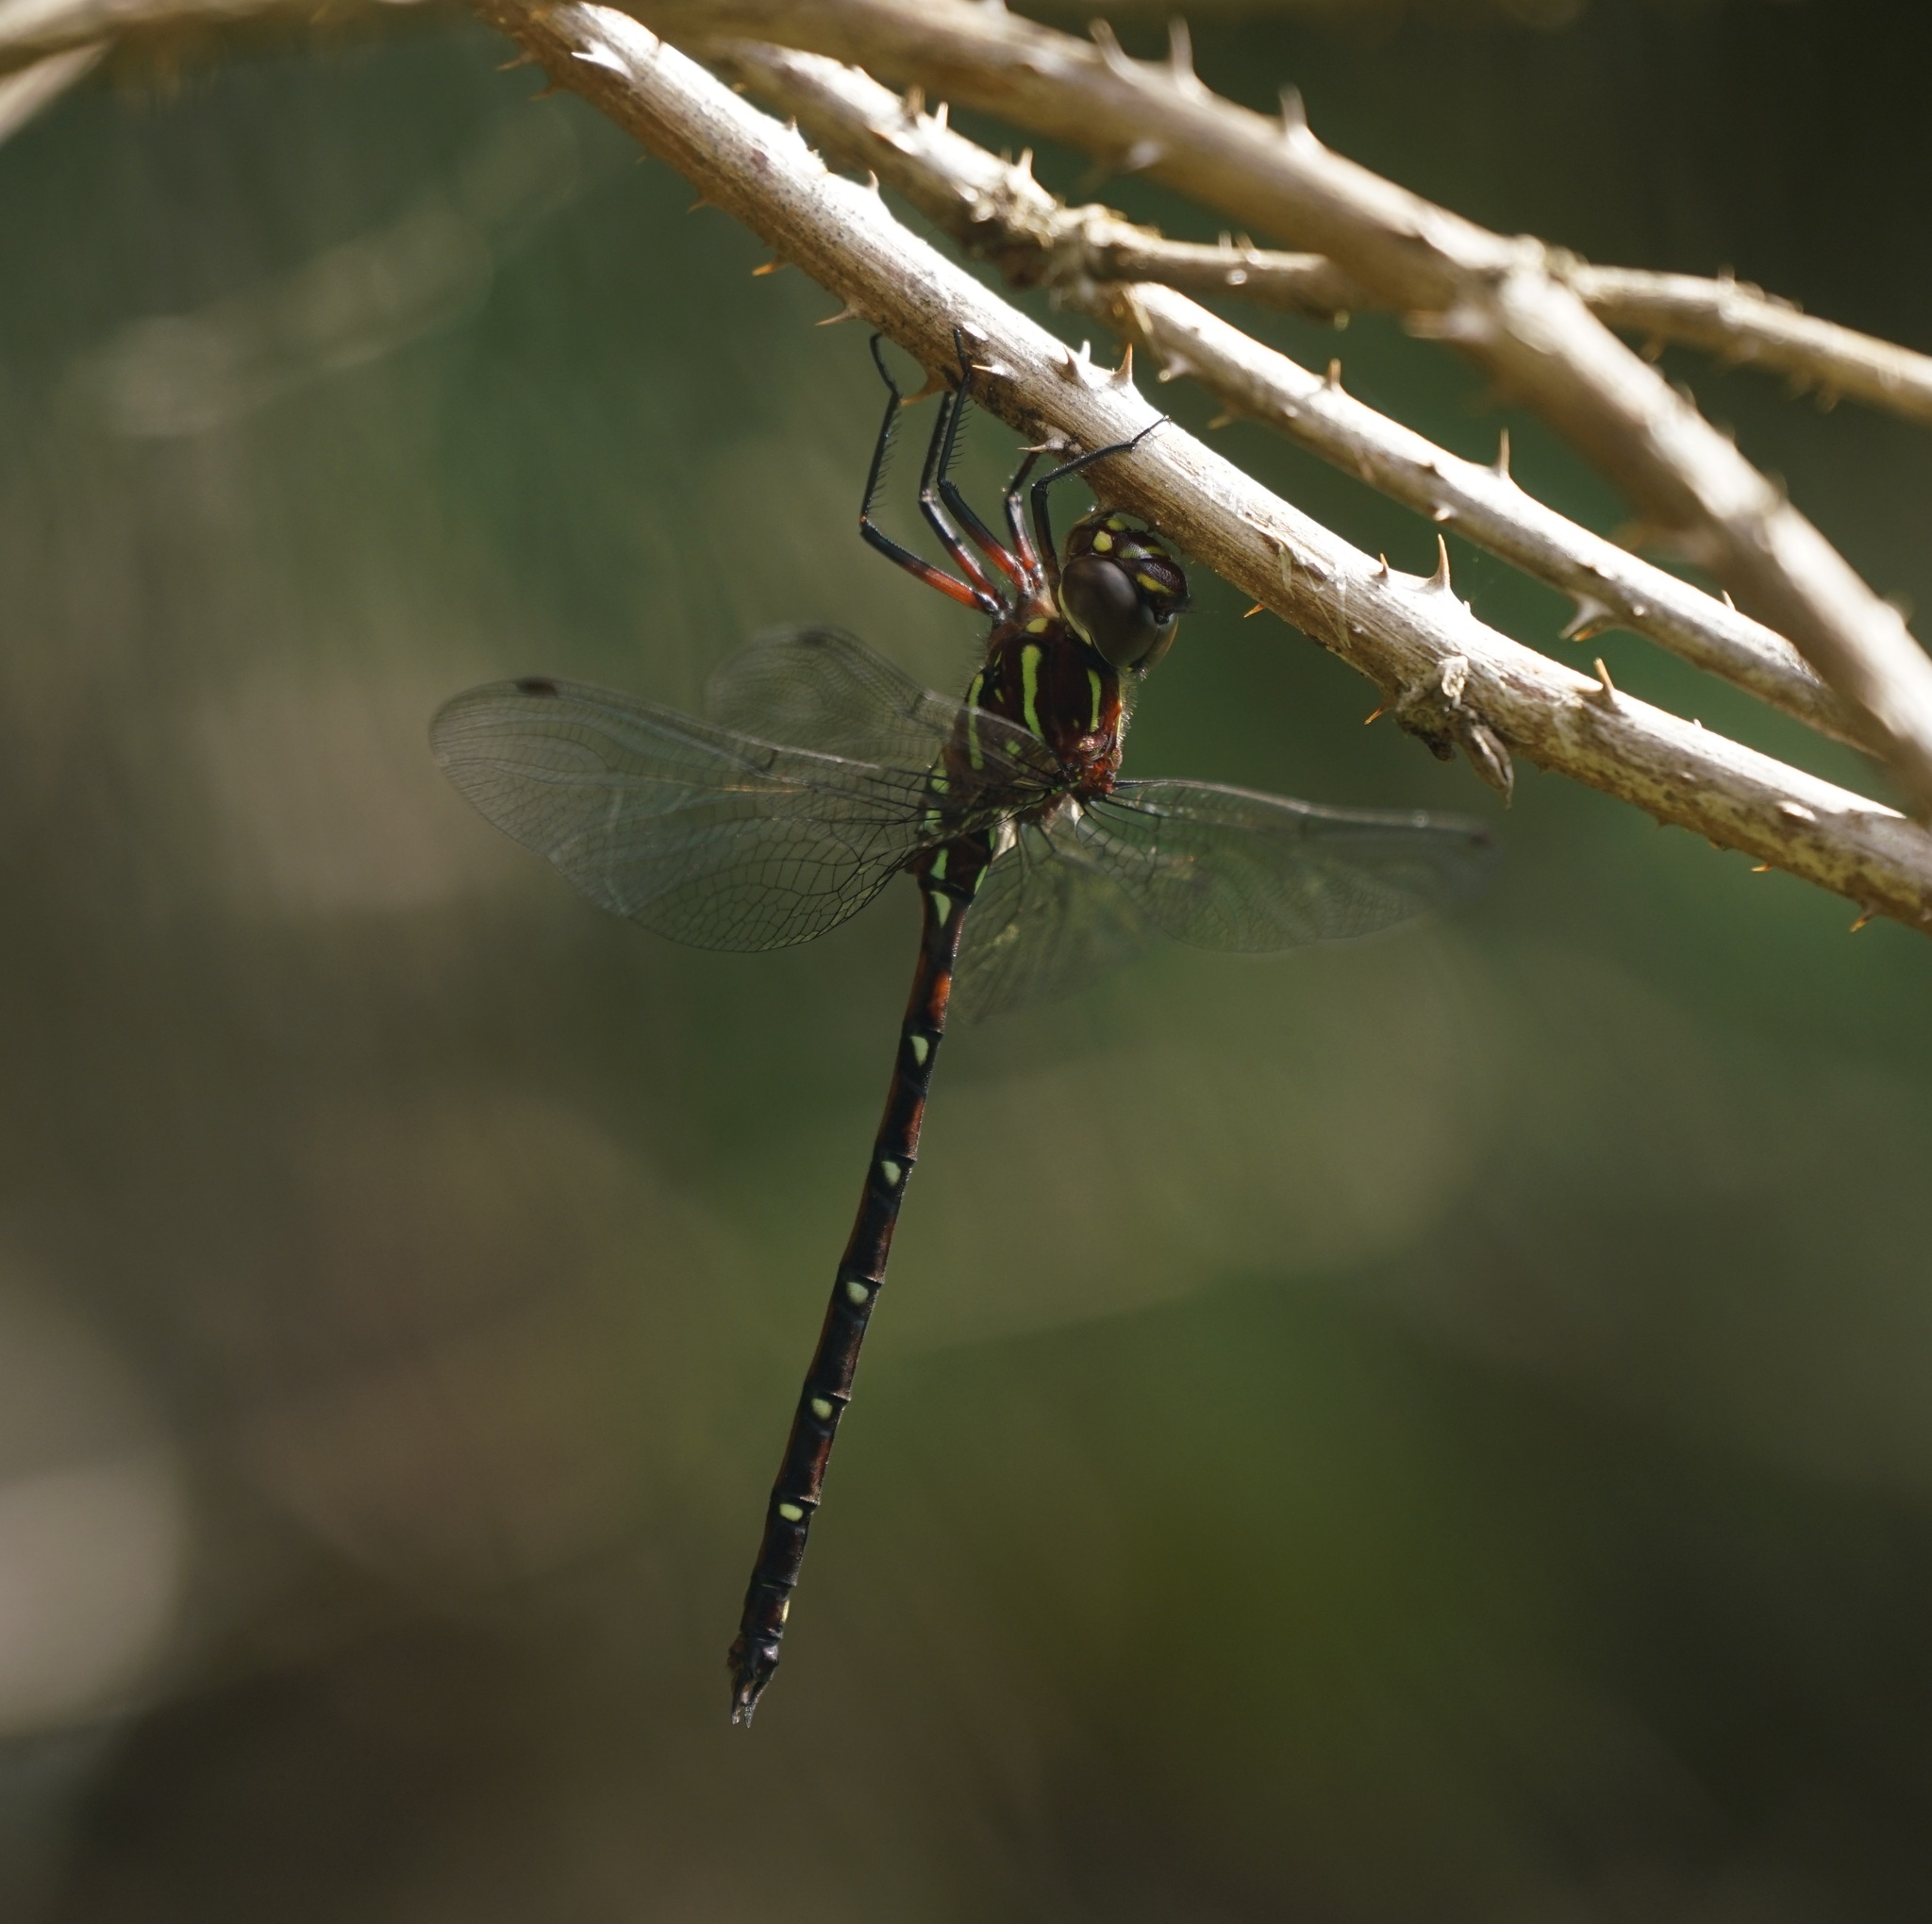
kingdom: Animalia
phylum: Arthropoda
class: Insecta
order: Odonata
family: Aeshnidae
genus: Austroaeschna
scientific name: Austroaeschna pulchra
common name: Forest darner
